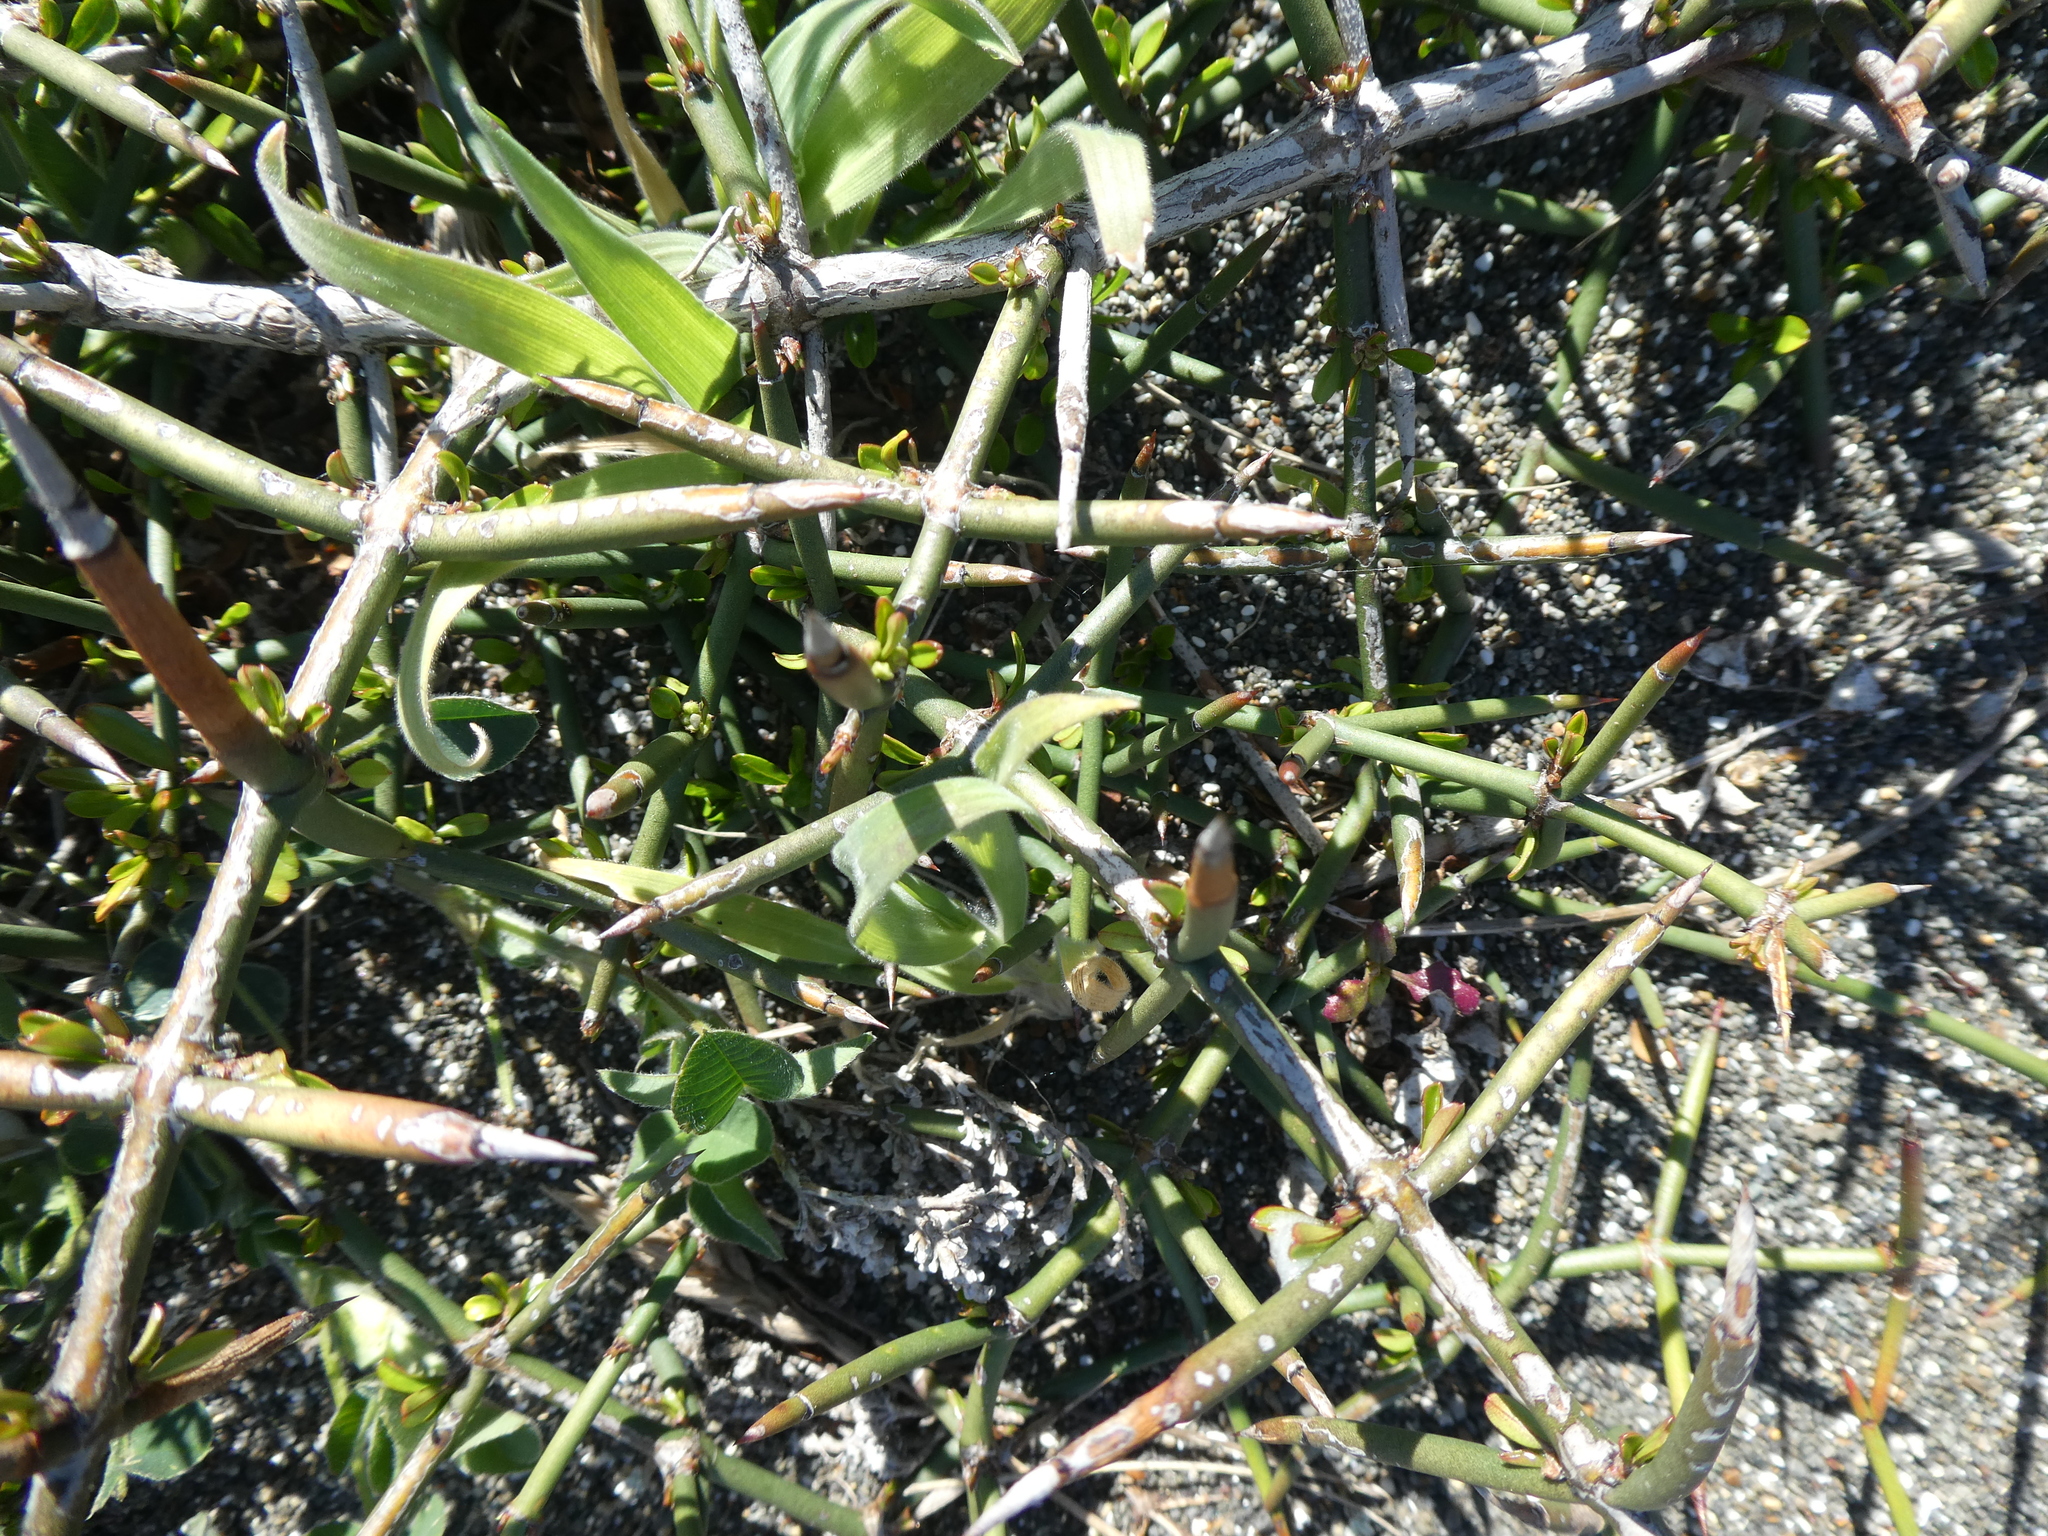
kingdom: Plantae
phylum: Tracheophyta
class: Magnoliopsida
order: Rosales
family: Rhamnaceae
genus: Discaria
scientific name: Discaria toumatou
